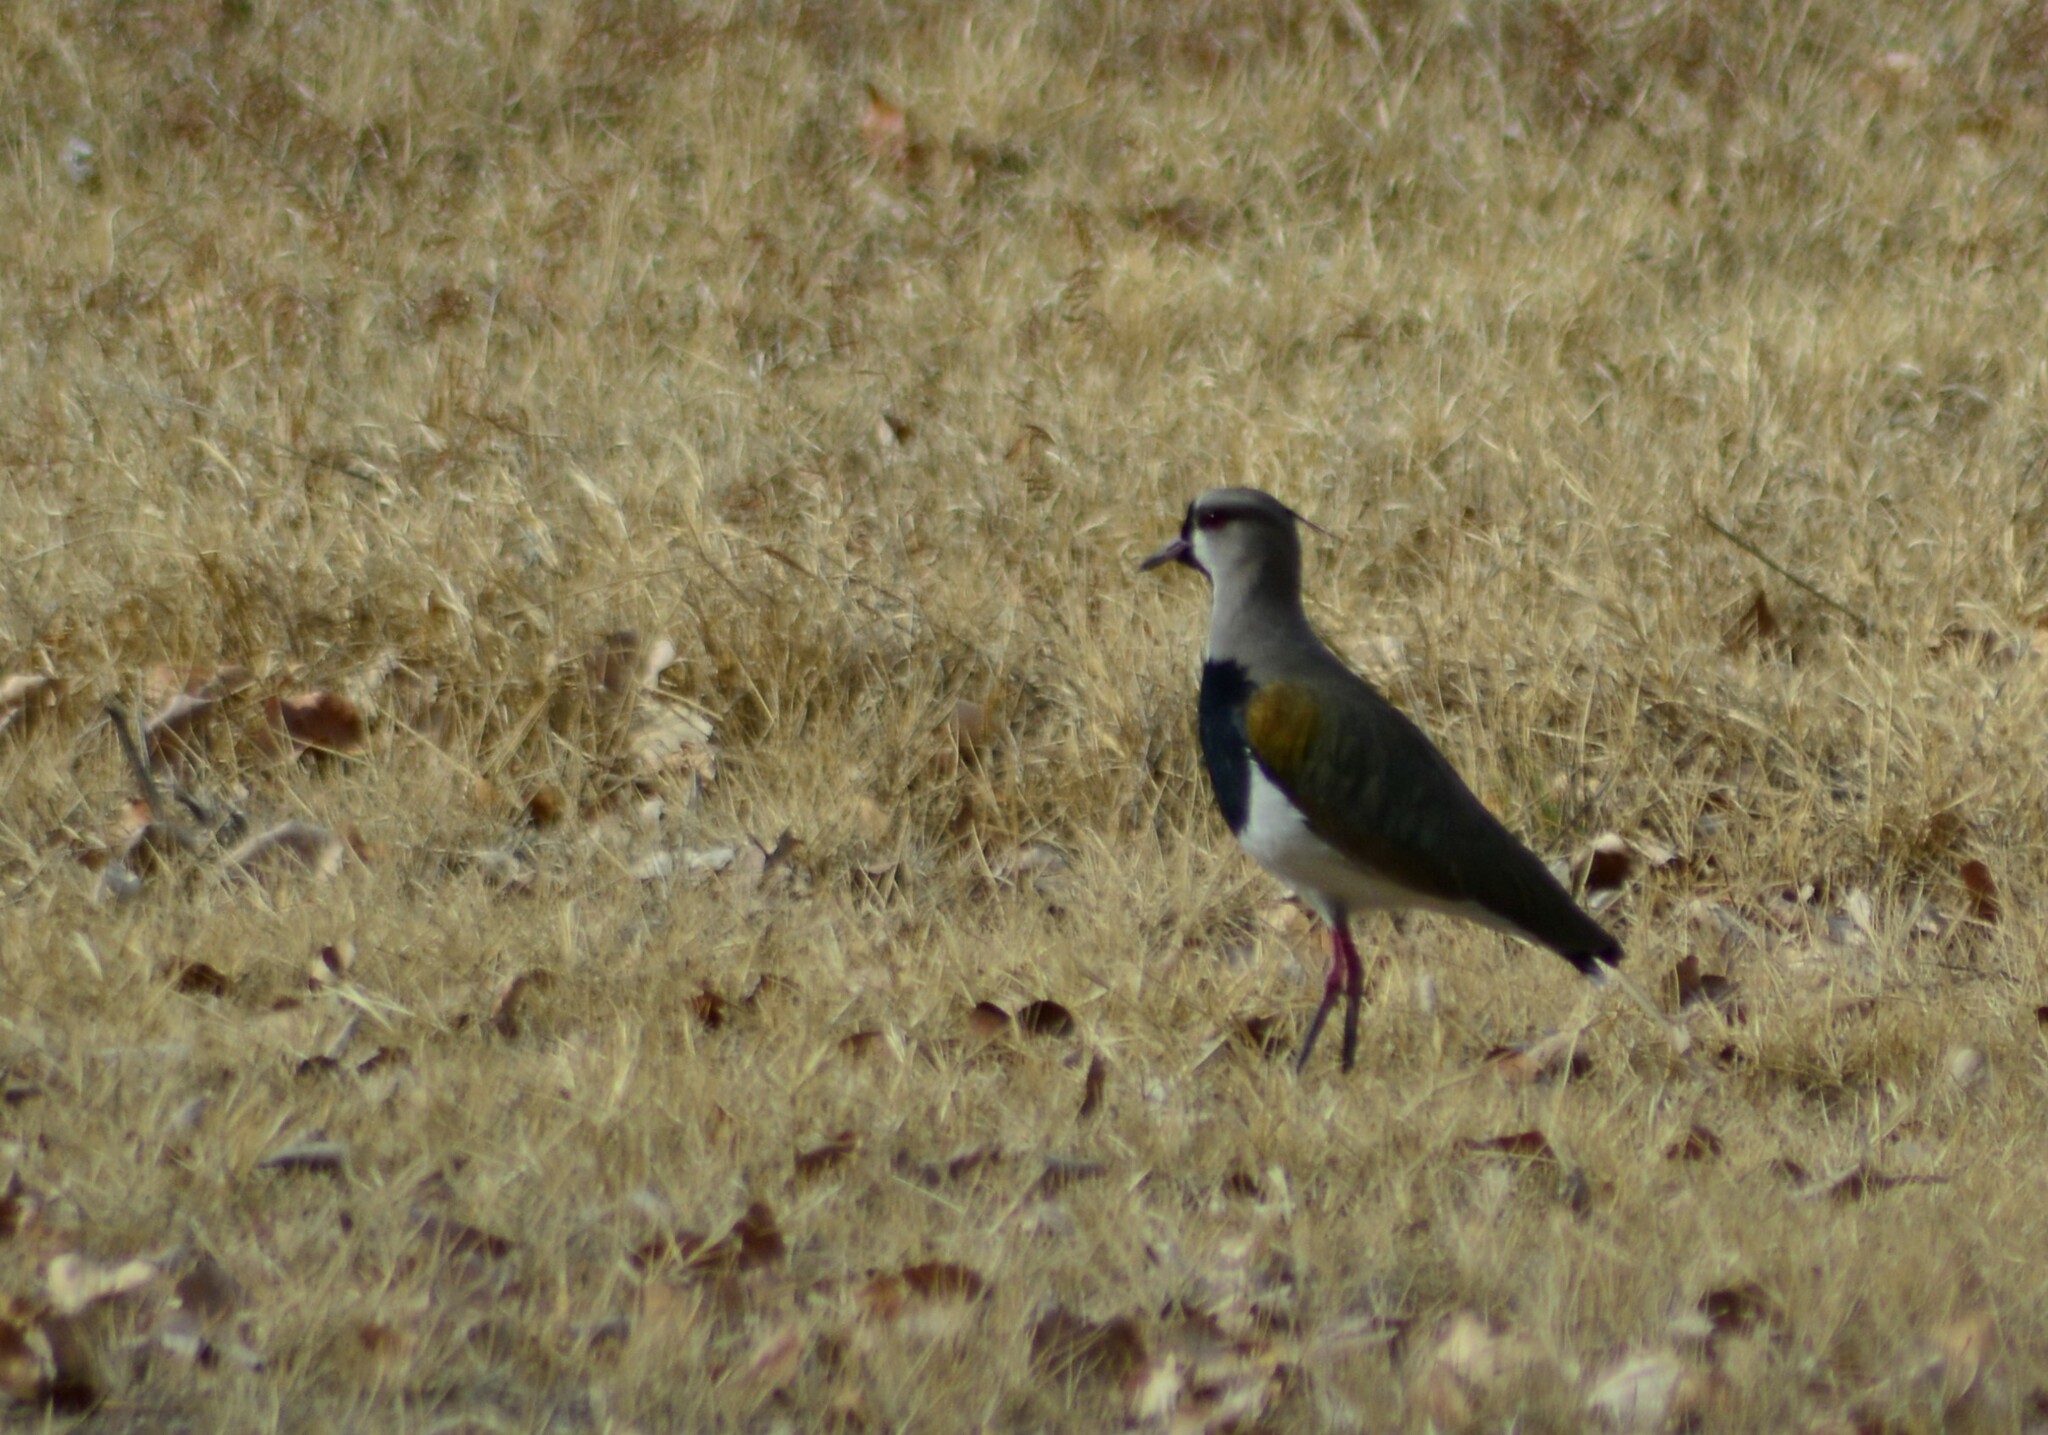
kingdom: Animalia
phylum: Chordata
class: Aves
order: Charadriiformes
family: Charadriidae
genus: Vanellus
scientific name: Vanellus chilensis
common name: Southern lapwing
